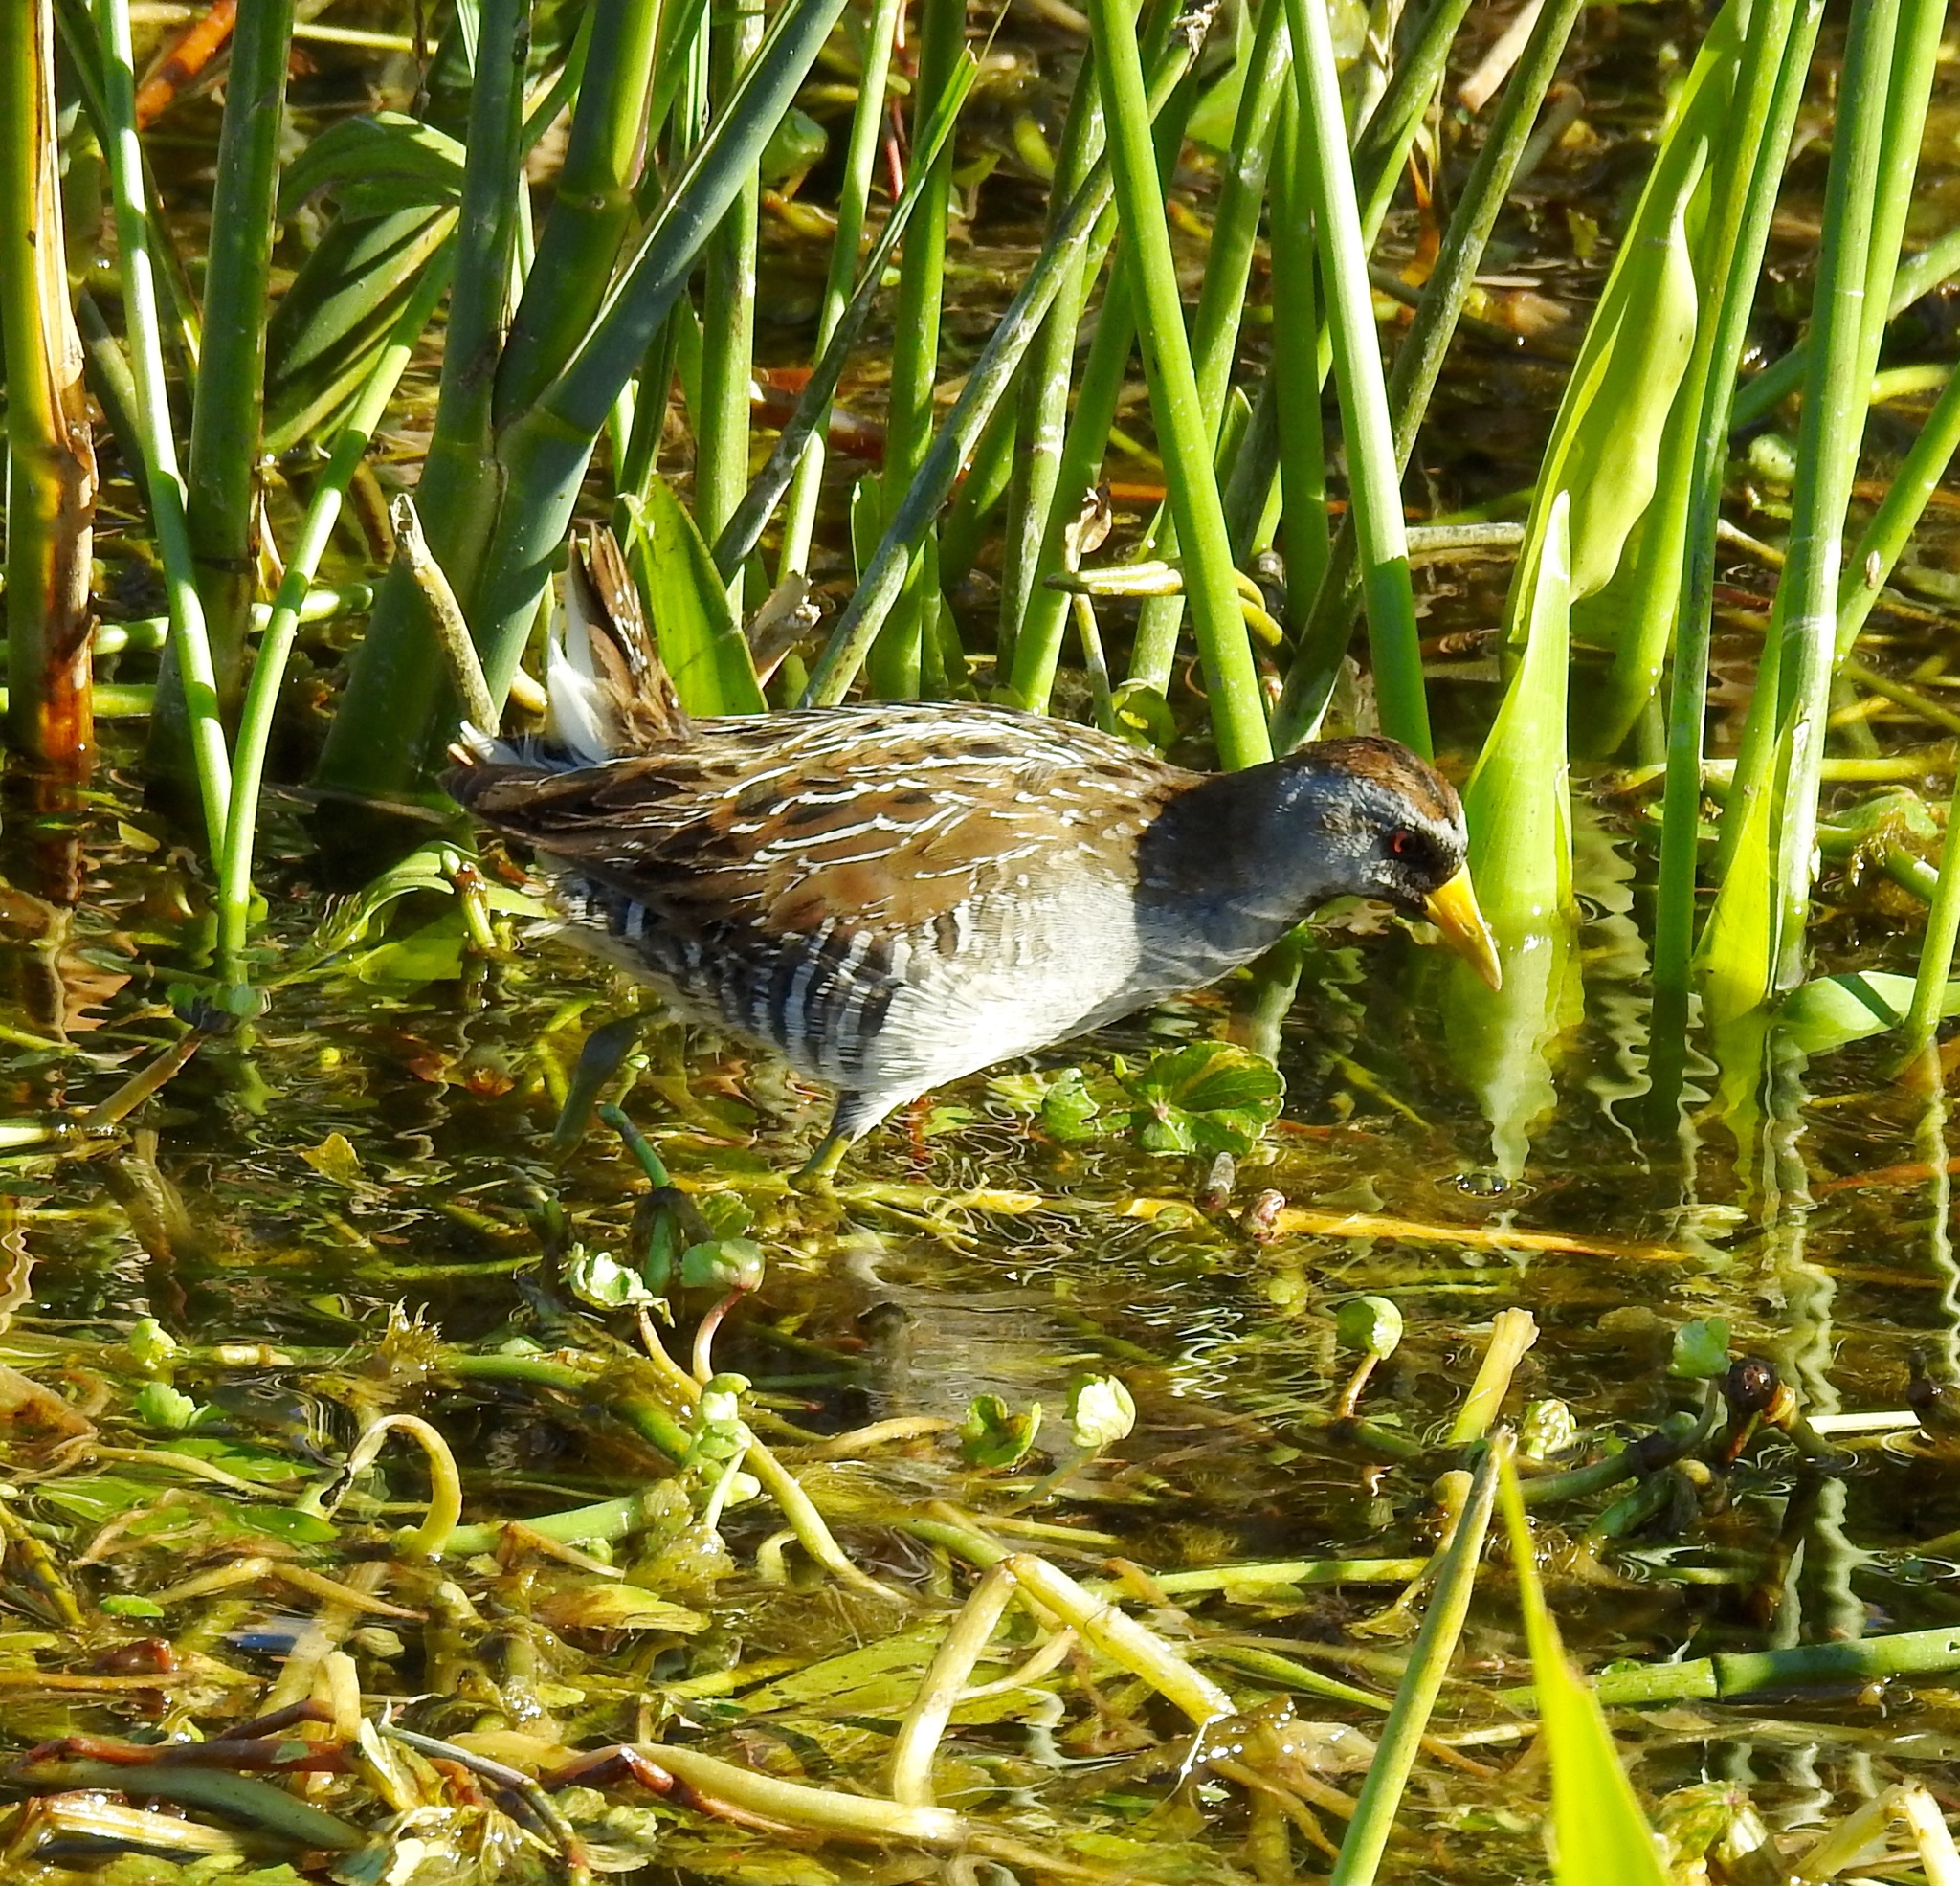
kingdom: Animalia
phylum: Chordata
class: Aves
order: Gruiformes
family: Rallidae
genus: Porzana
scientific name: Porzana carolina
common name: Sora
